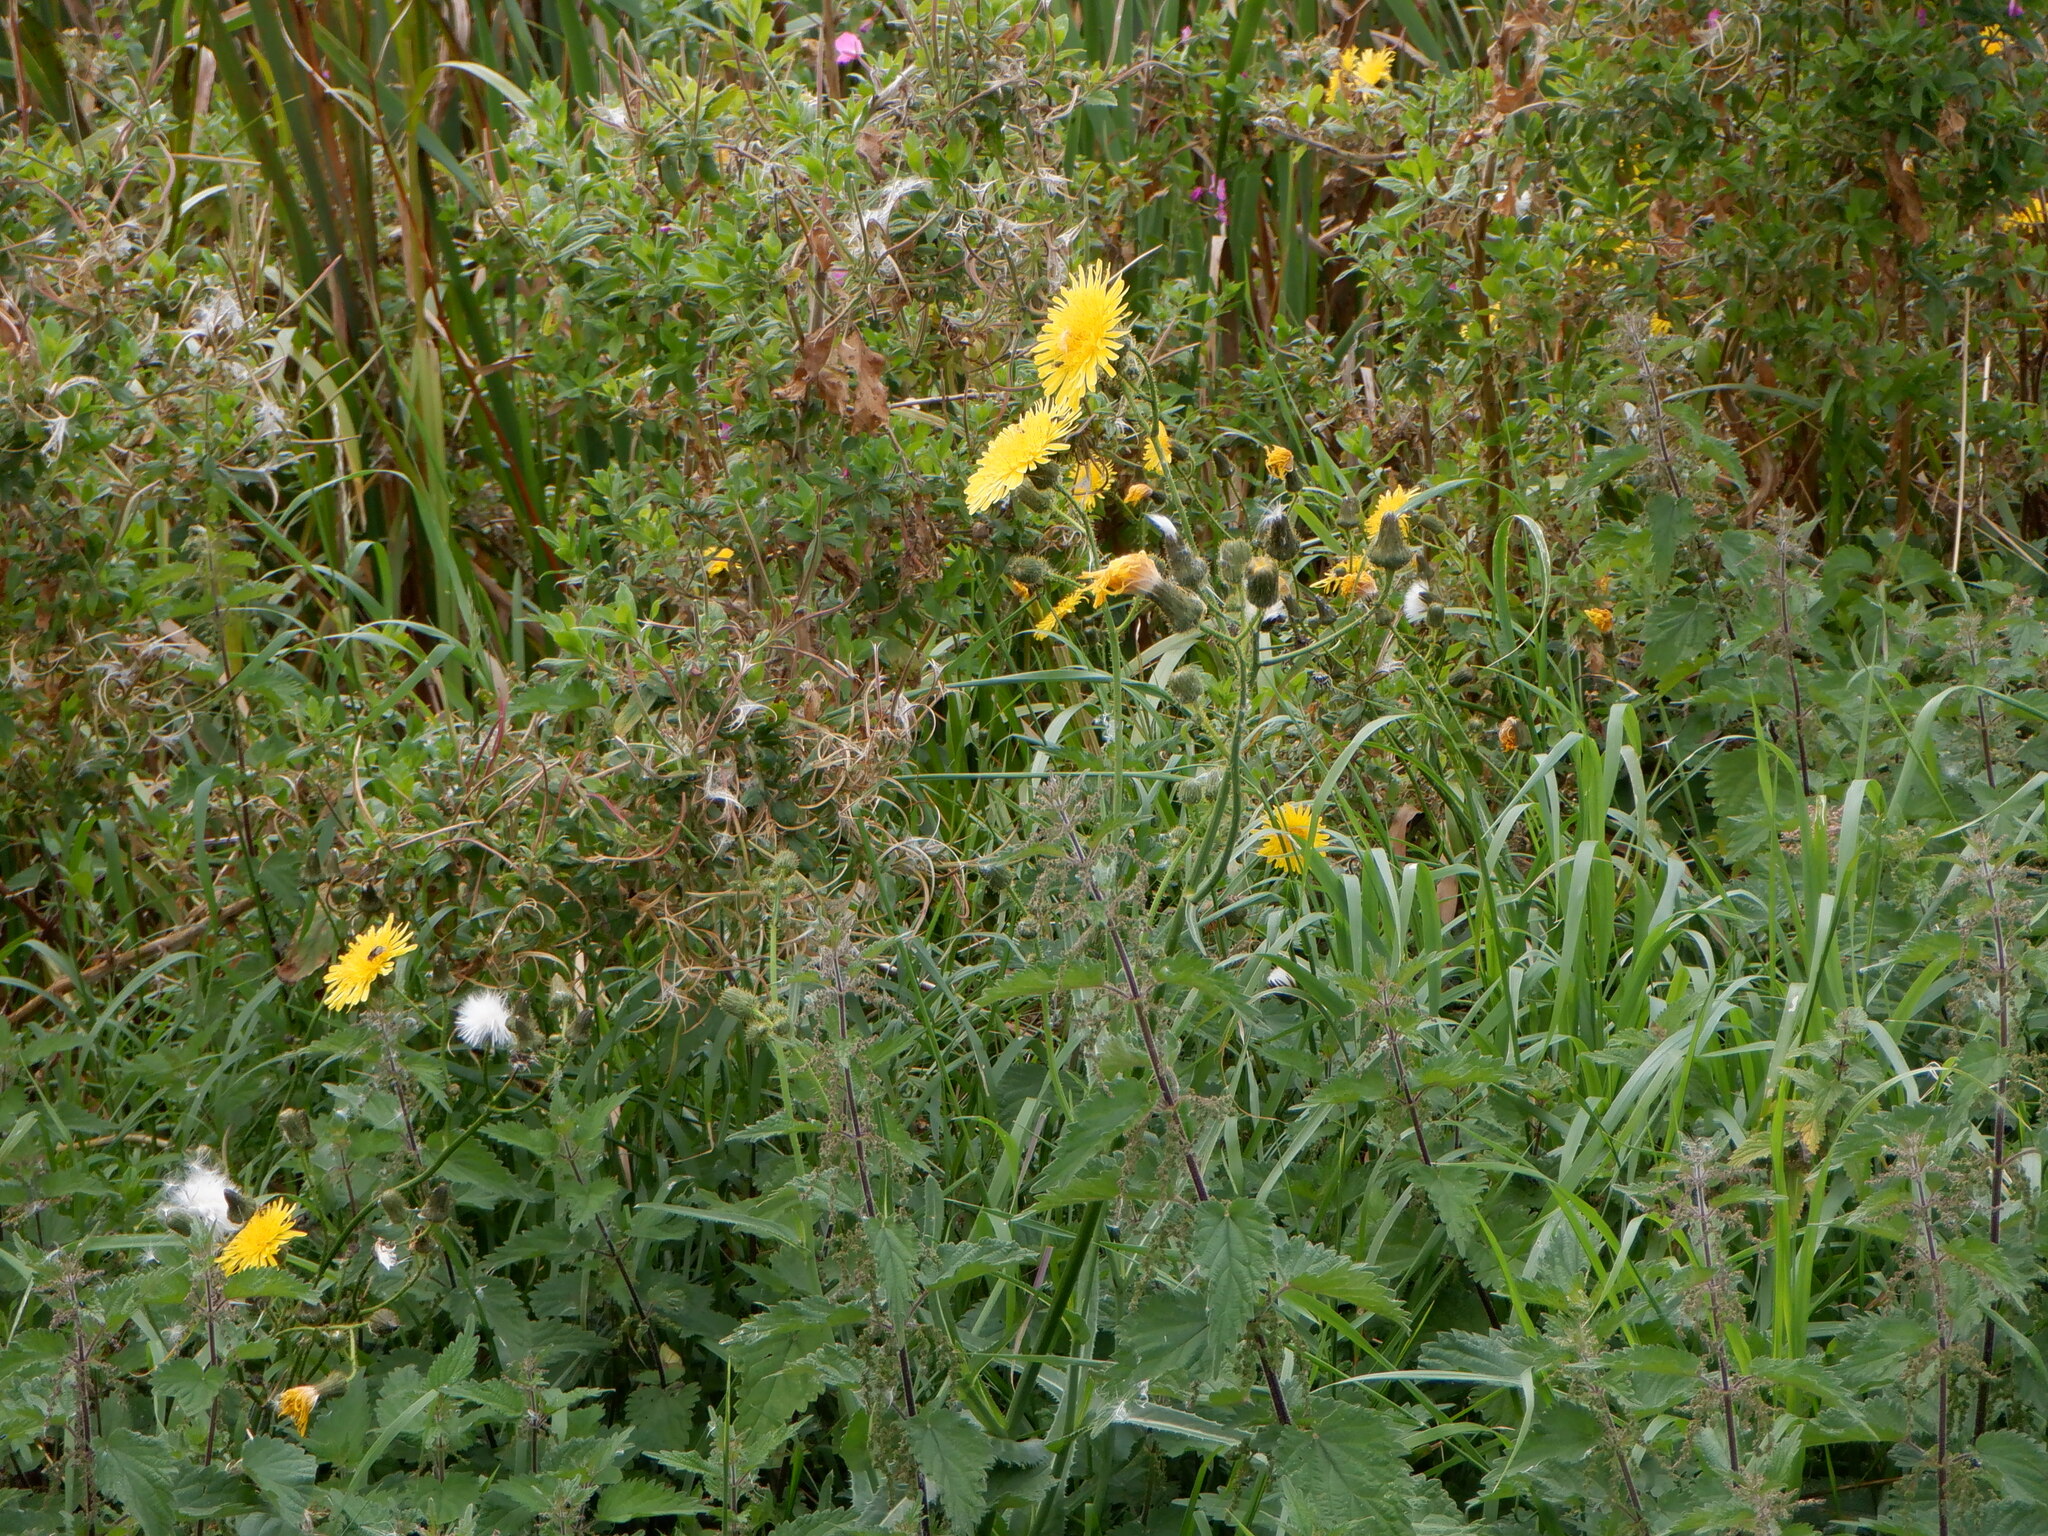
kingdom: Plantae
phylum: Tracheophyta
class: Magnoliopsida
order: Asterales
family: Asteraceae
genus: Sonchus
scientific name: Sonchus arvensis
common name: Perennial sow-thistle
